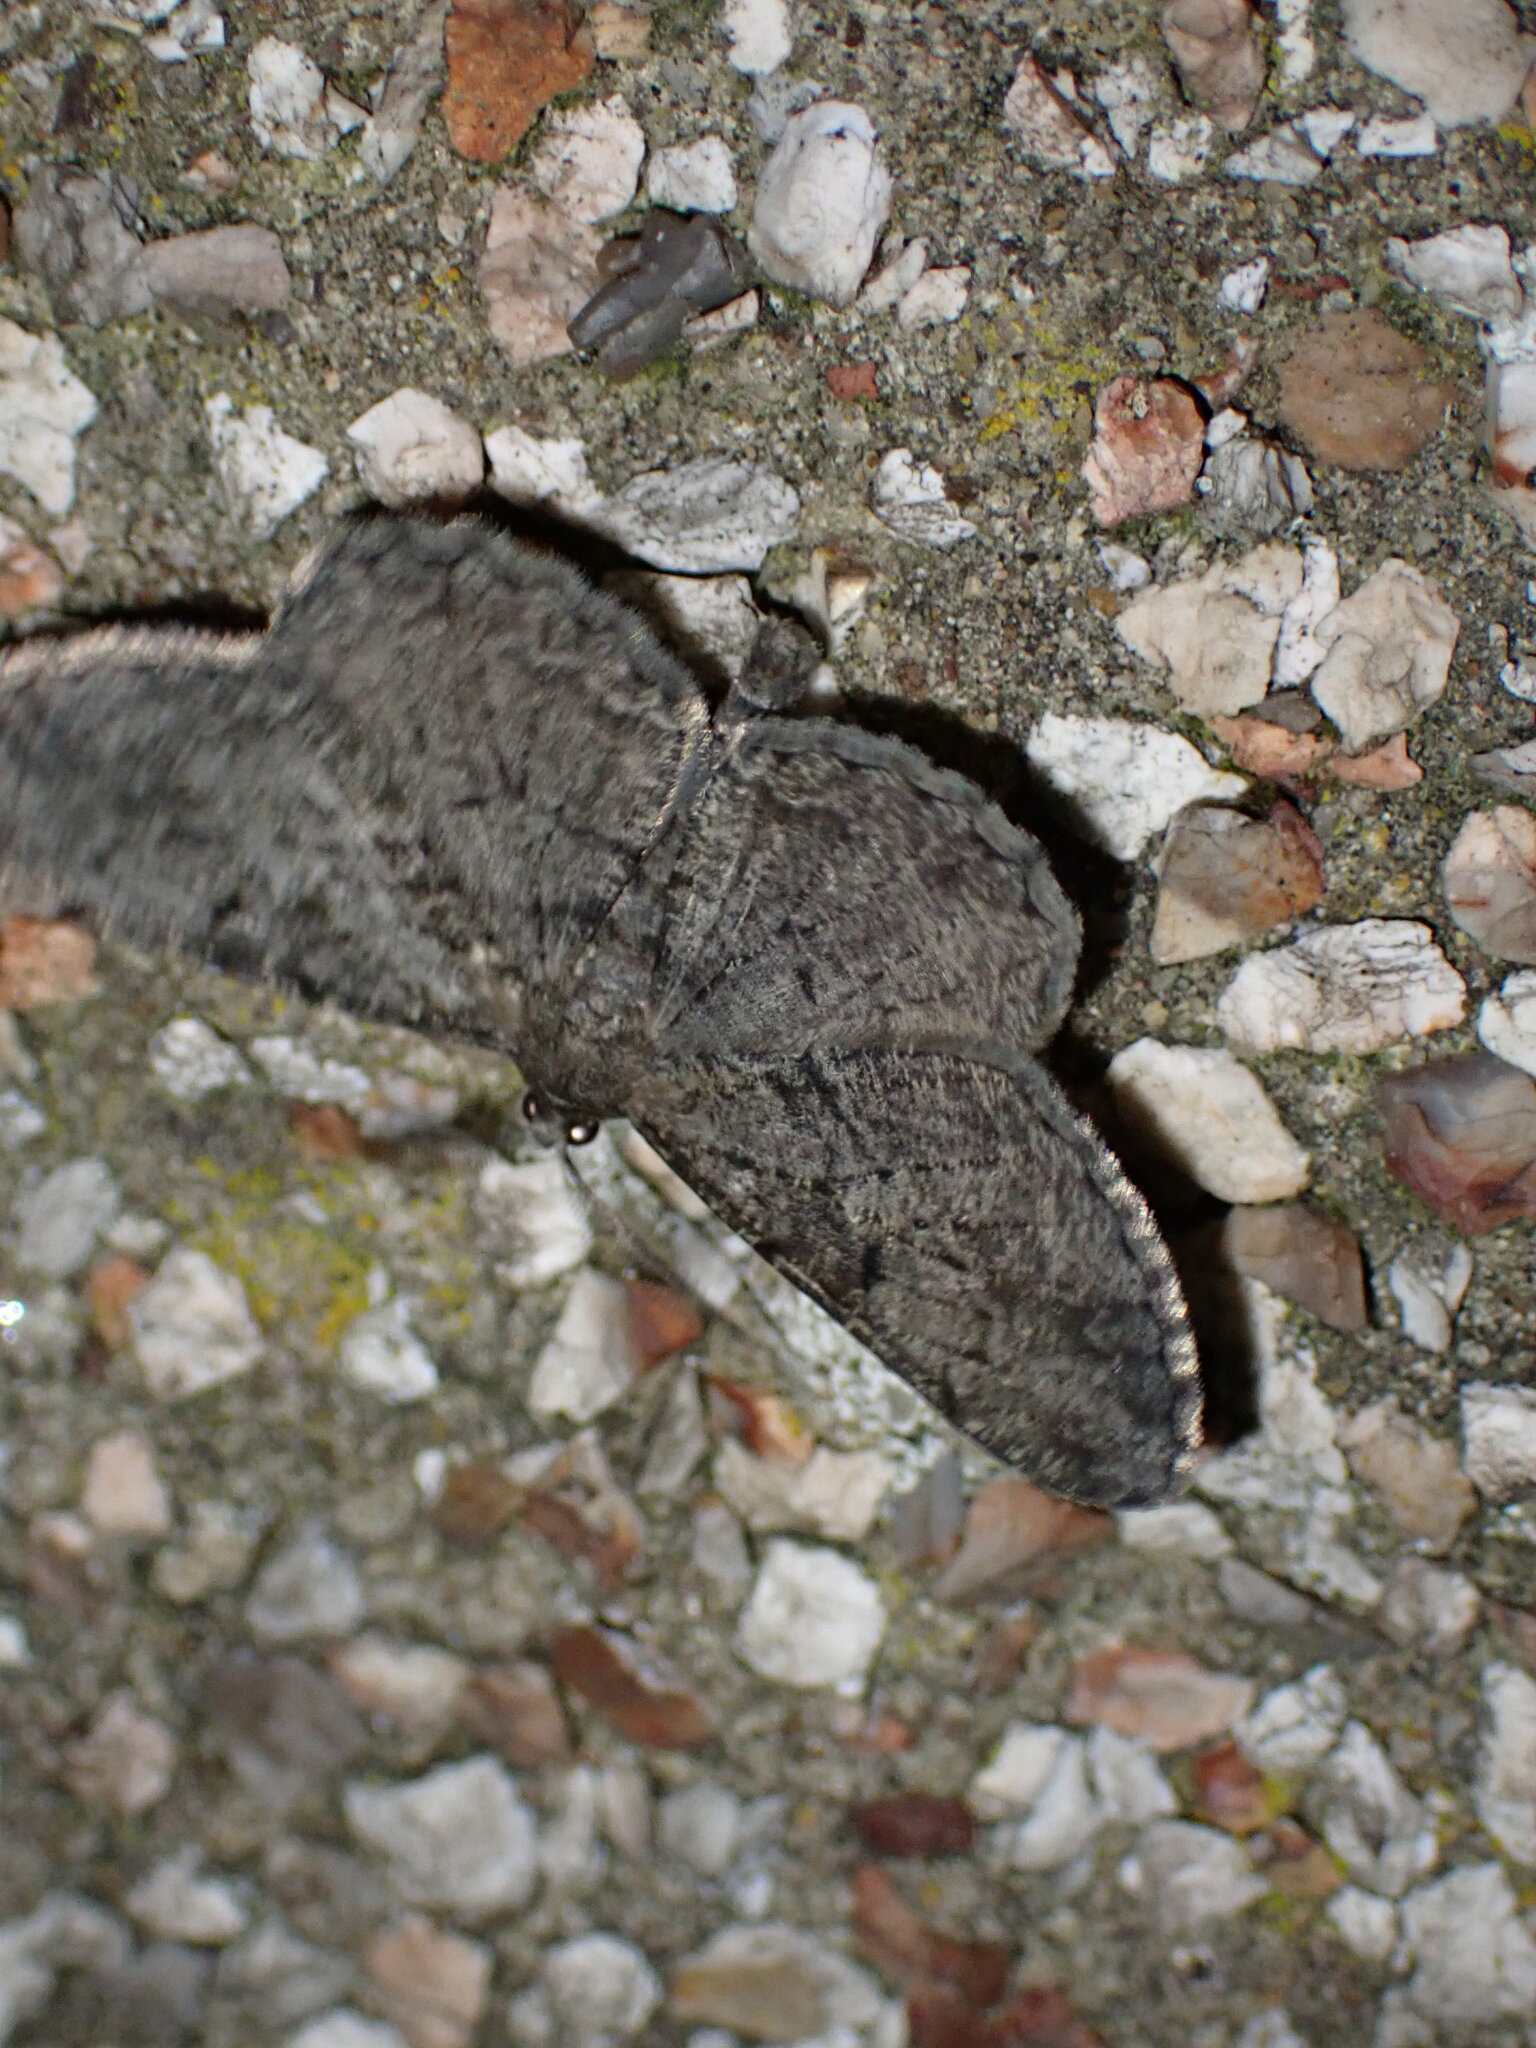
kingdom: Animalia
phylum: Arthropoda
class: Insecta
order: Lepidoptera
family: Geometridae
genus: Peribatodes
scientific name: Peribatodes rhomboidaria
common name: Willow beauty
